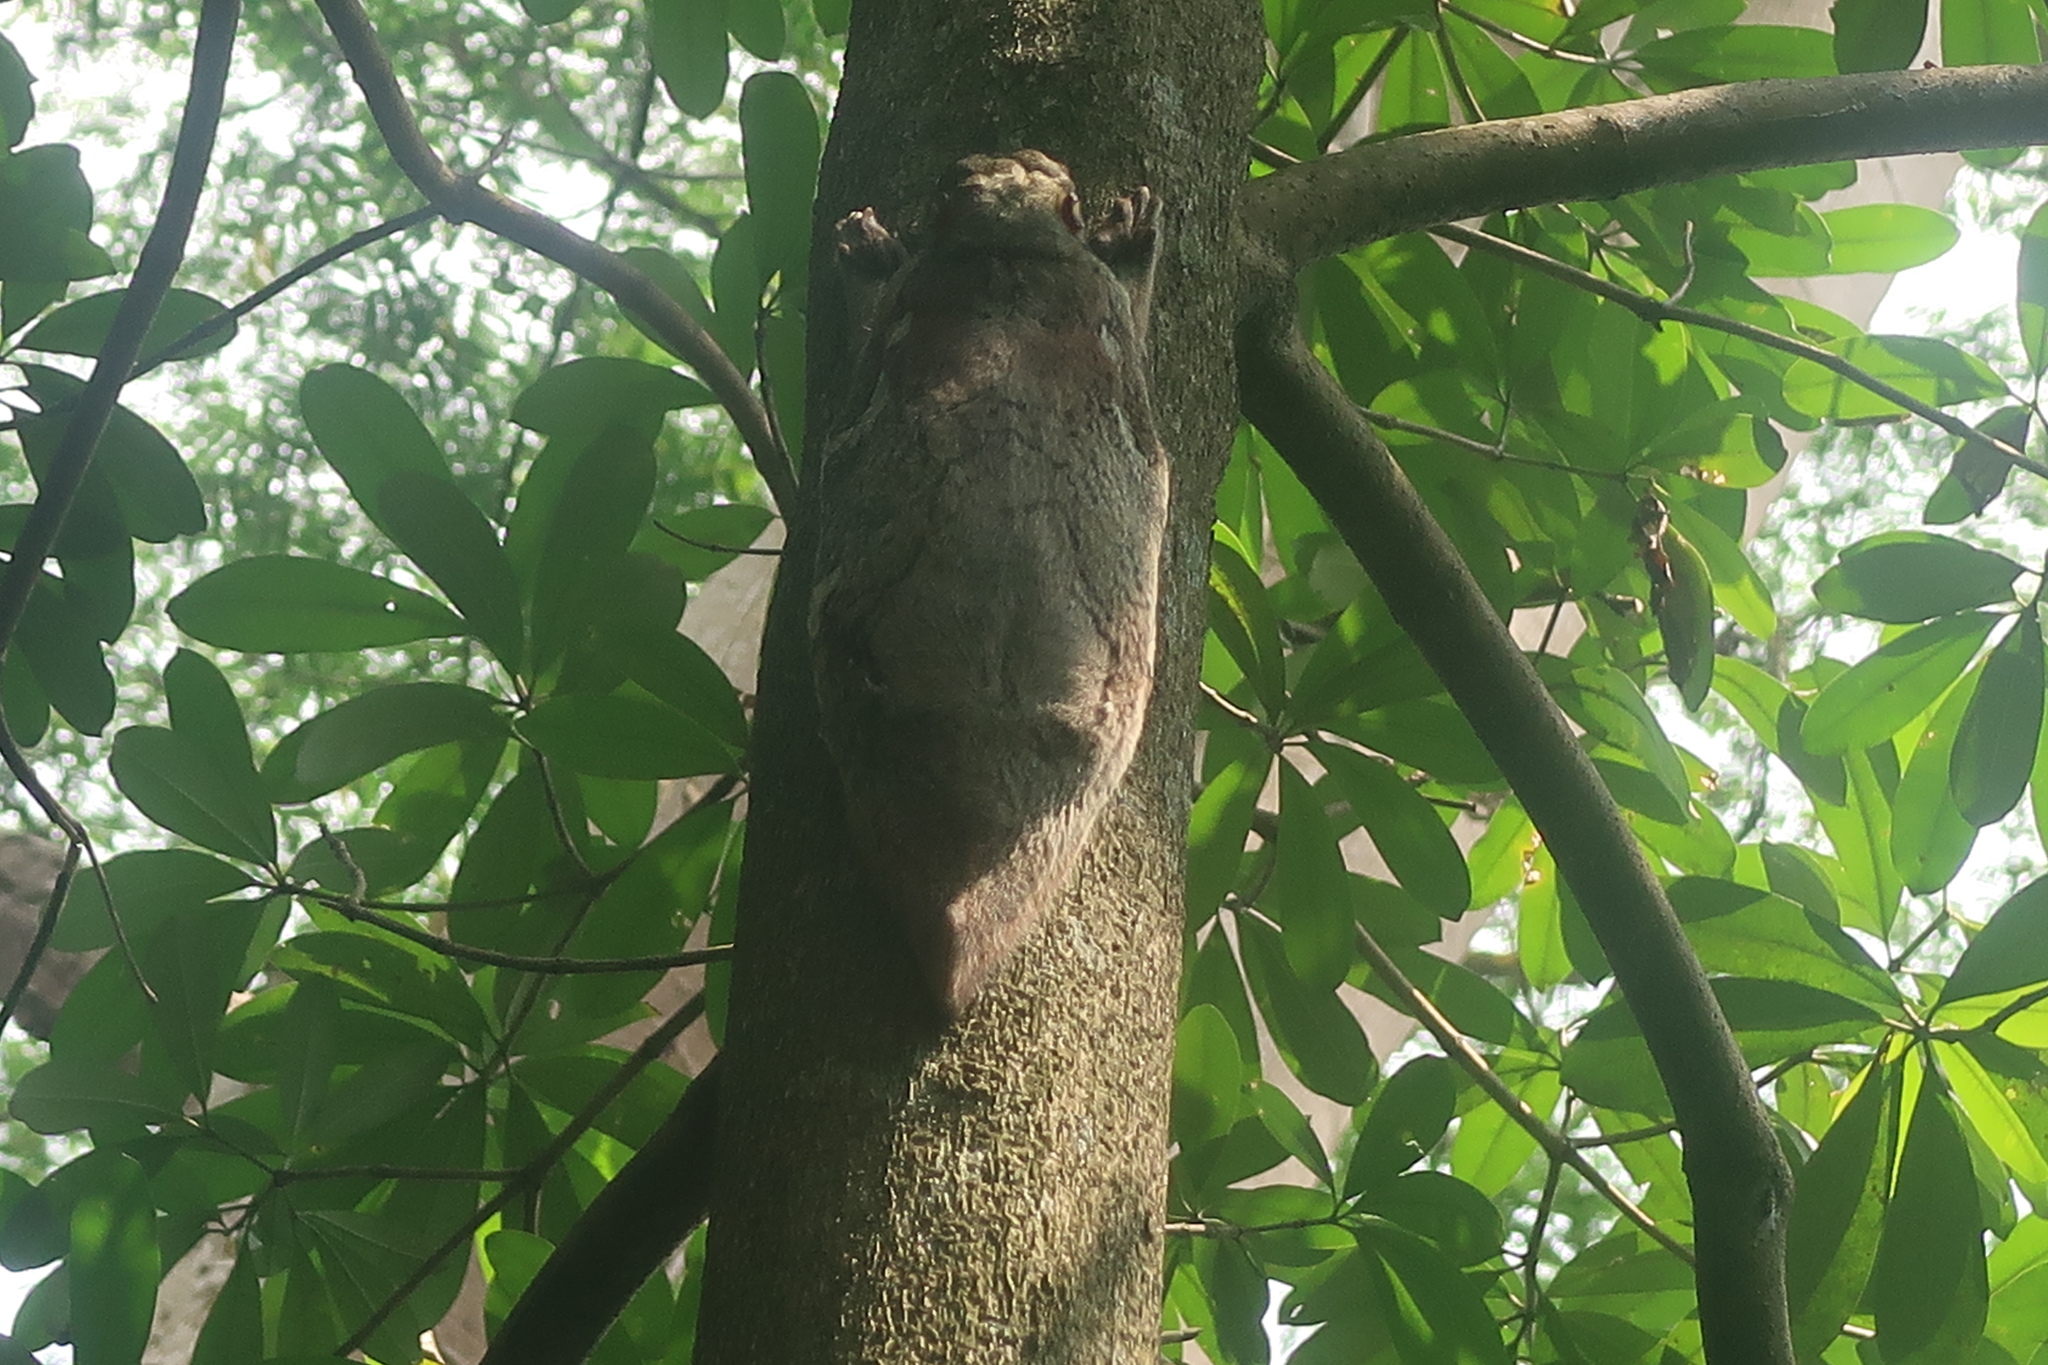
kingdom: Animalia
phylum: Chordata
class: Mammalia
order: Dermoptera
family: Cynocephalidae
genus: Galeopterus
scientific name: Galeopterus variegatus
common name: Sunda flying lemur
